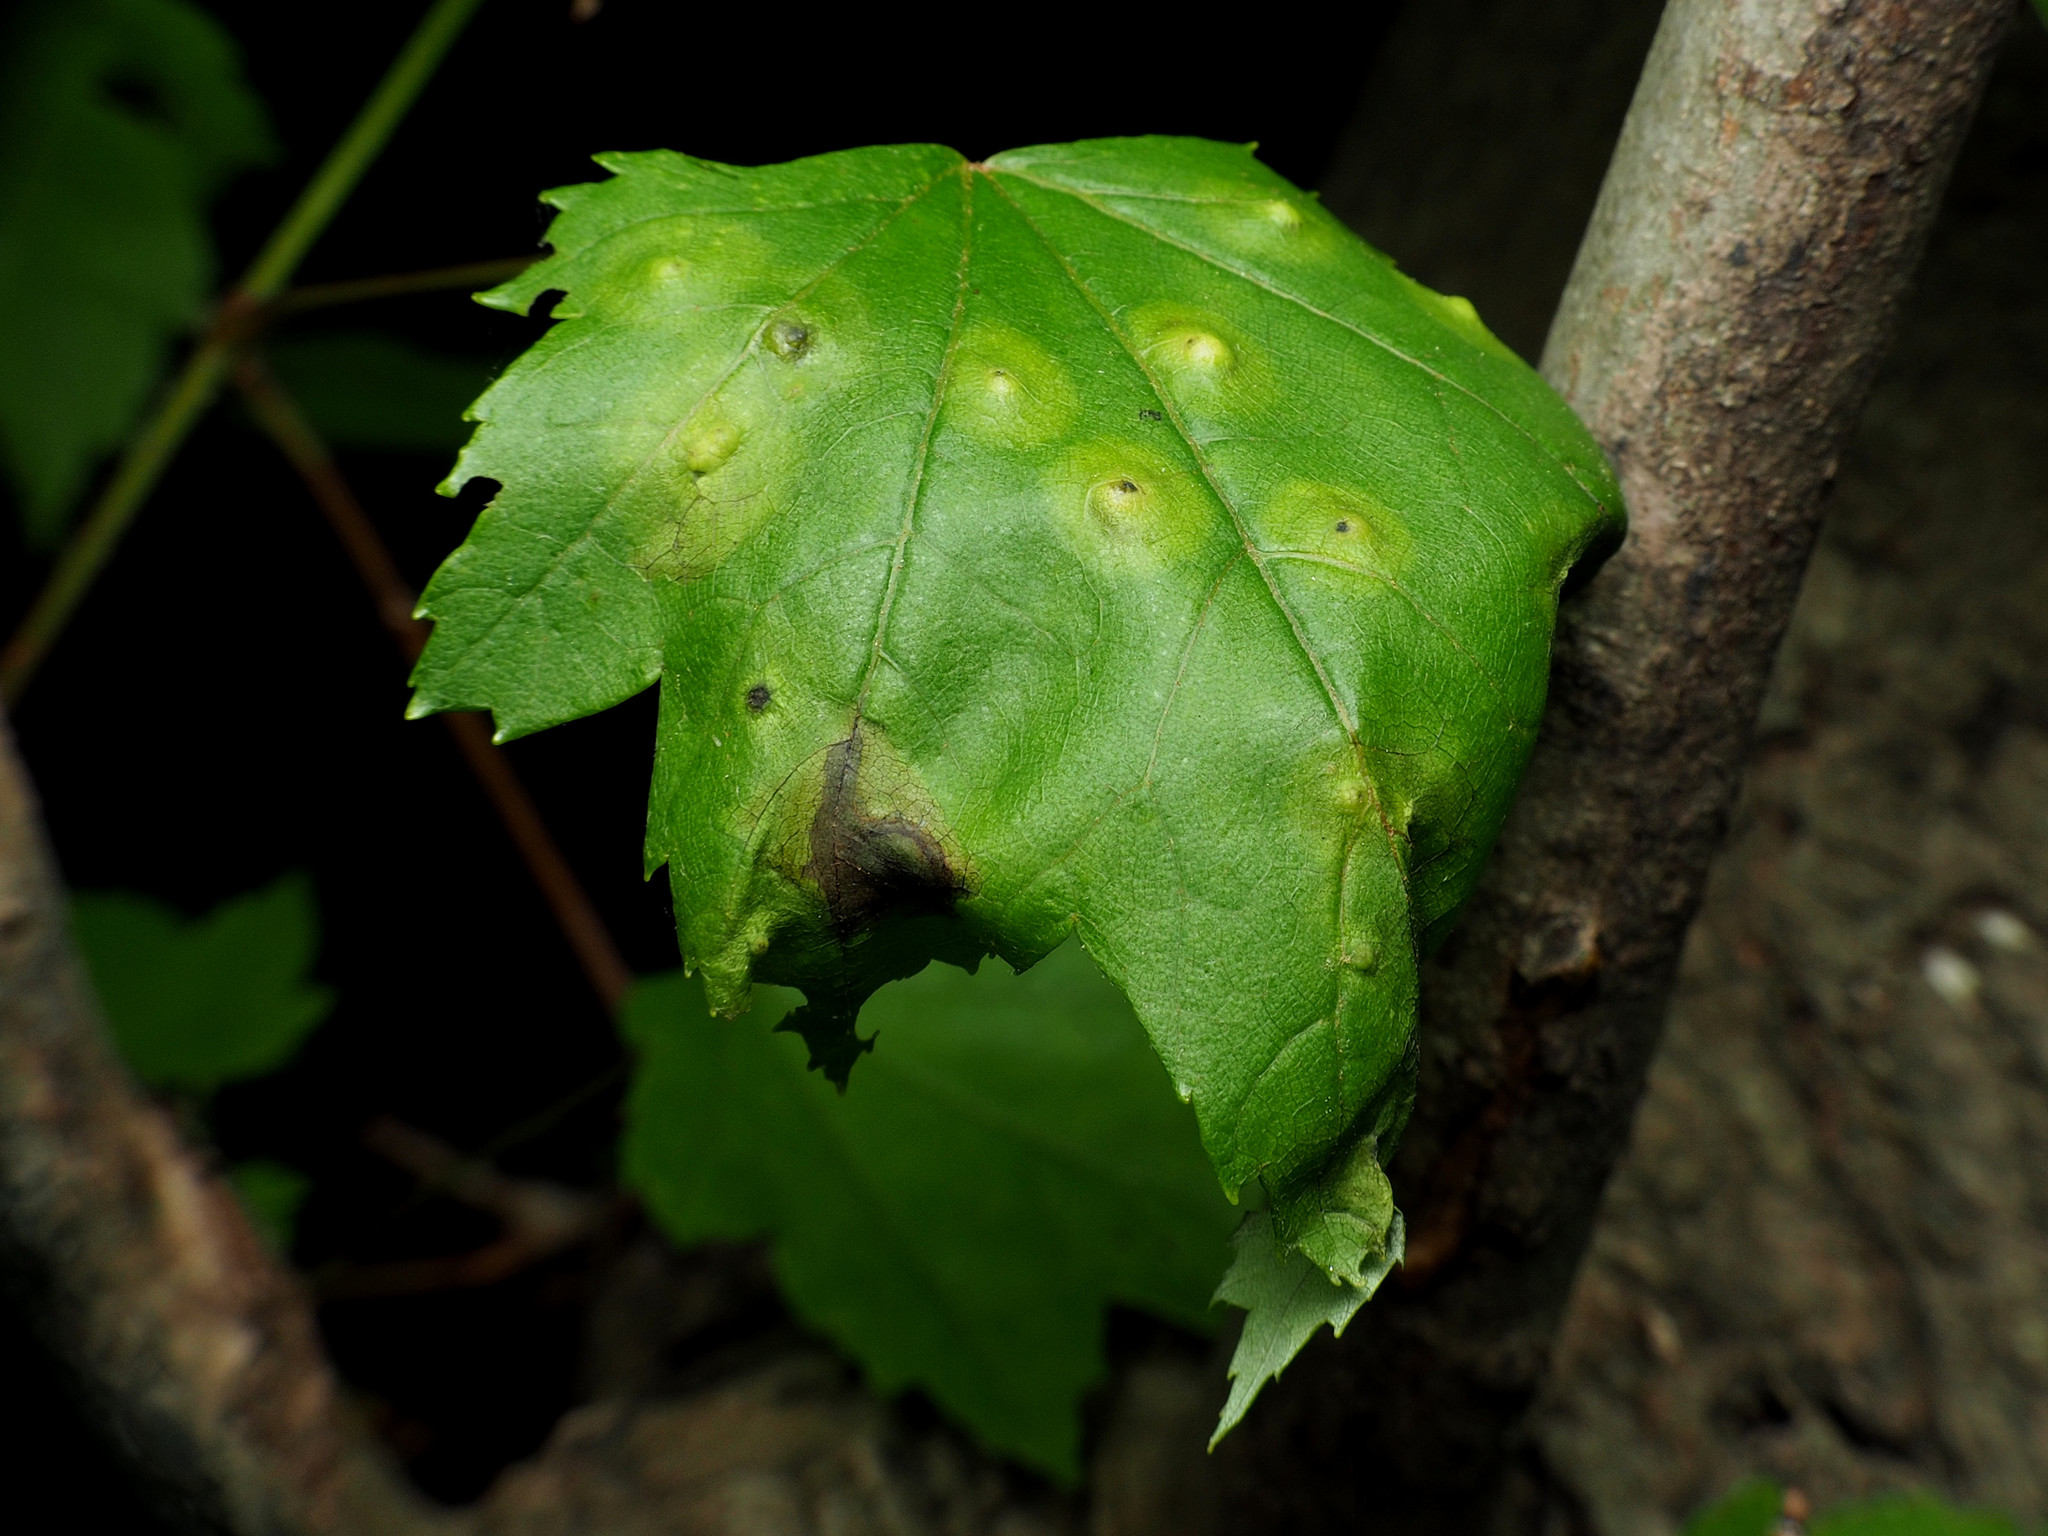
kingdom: Animalia
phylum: Arthropoda
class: Insecta
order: Diptera
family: Cecidomyiidae
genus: Acericecis
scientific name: Acericecis ocellaris
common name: Ocellate gall midge
